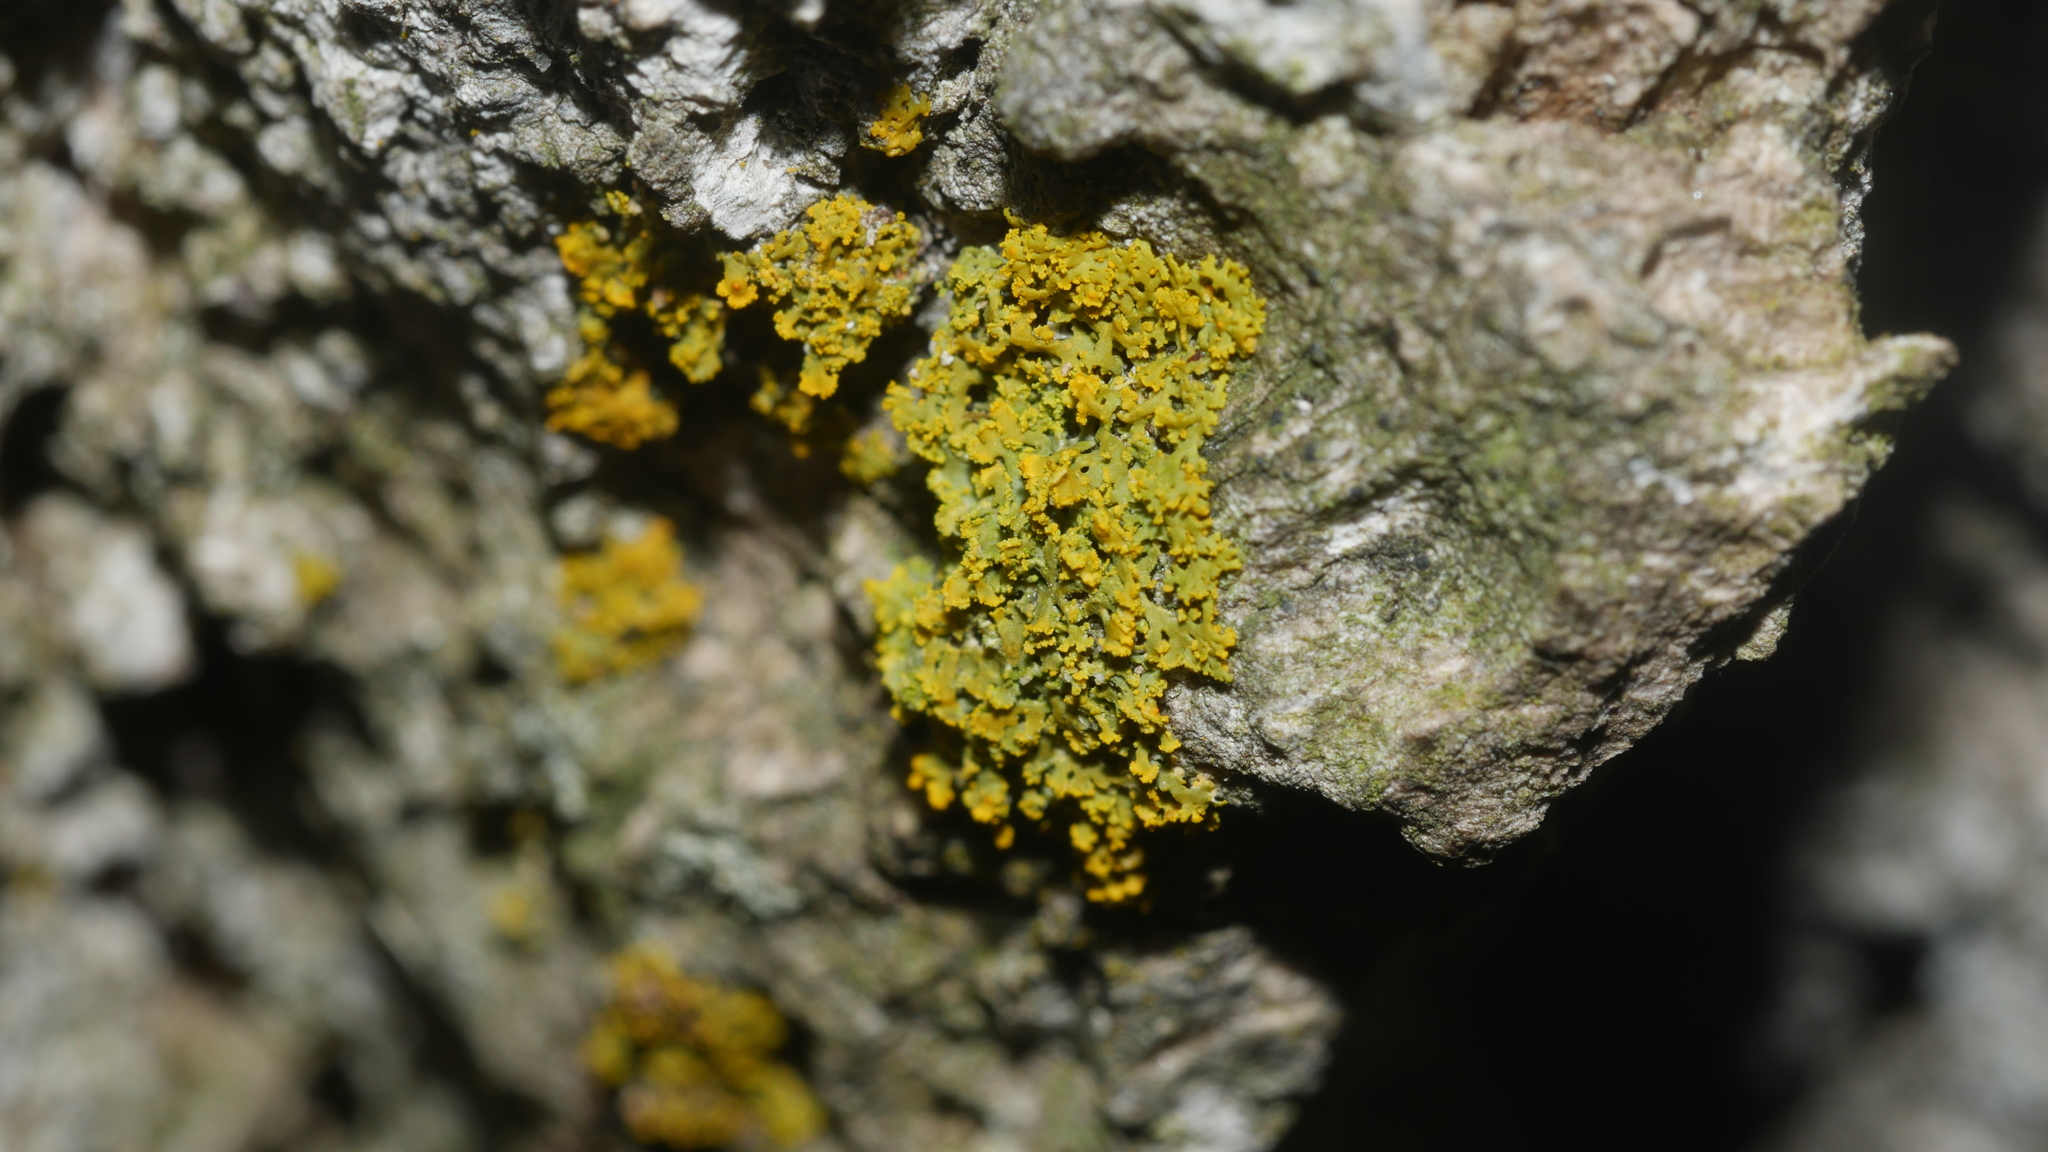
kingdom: Fungi
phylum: Ascomycota
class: Candelariomycetes
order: Candelariales
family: Candelariaceae
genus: Candelaria
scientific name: Candelaria concolor
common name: Candleflame lichen
